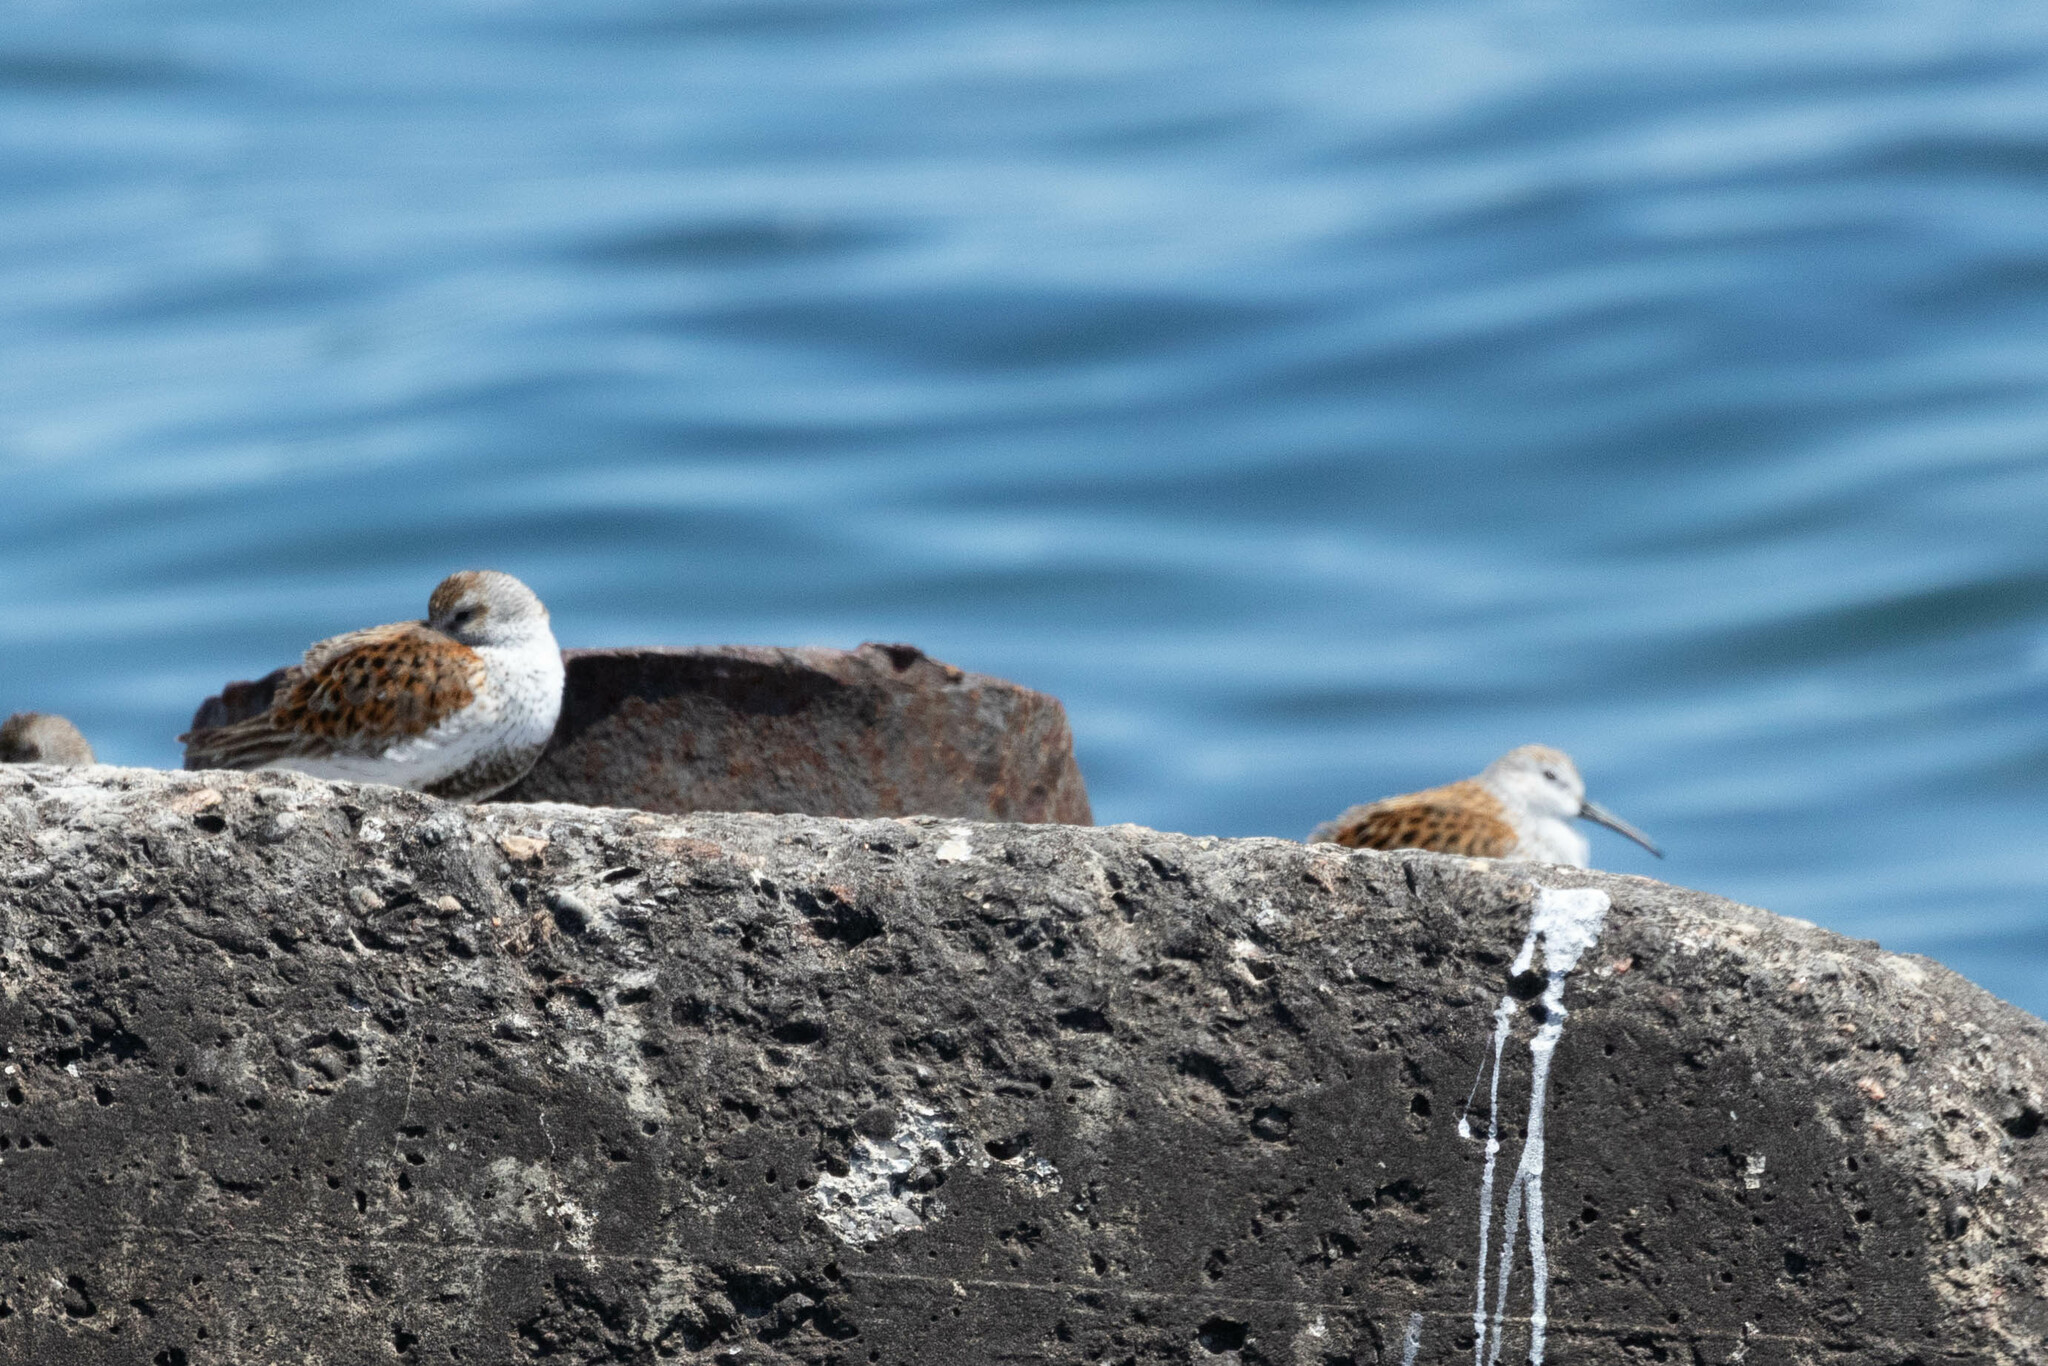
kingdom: Animalia
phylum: Chordata
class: Aves
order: Charadriiformes
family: Scolopacidae
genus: Calidris
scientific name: Calidris alpina
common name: Dunlin
